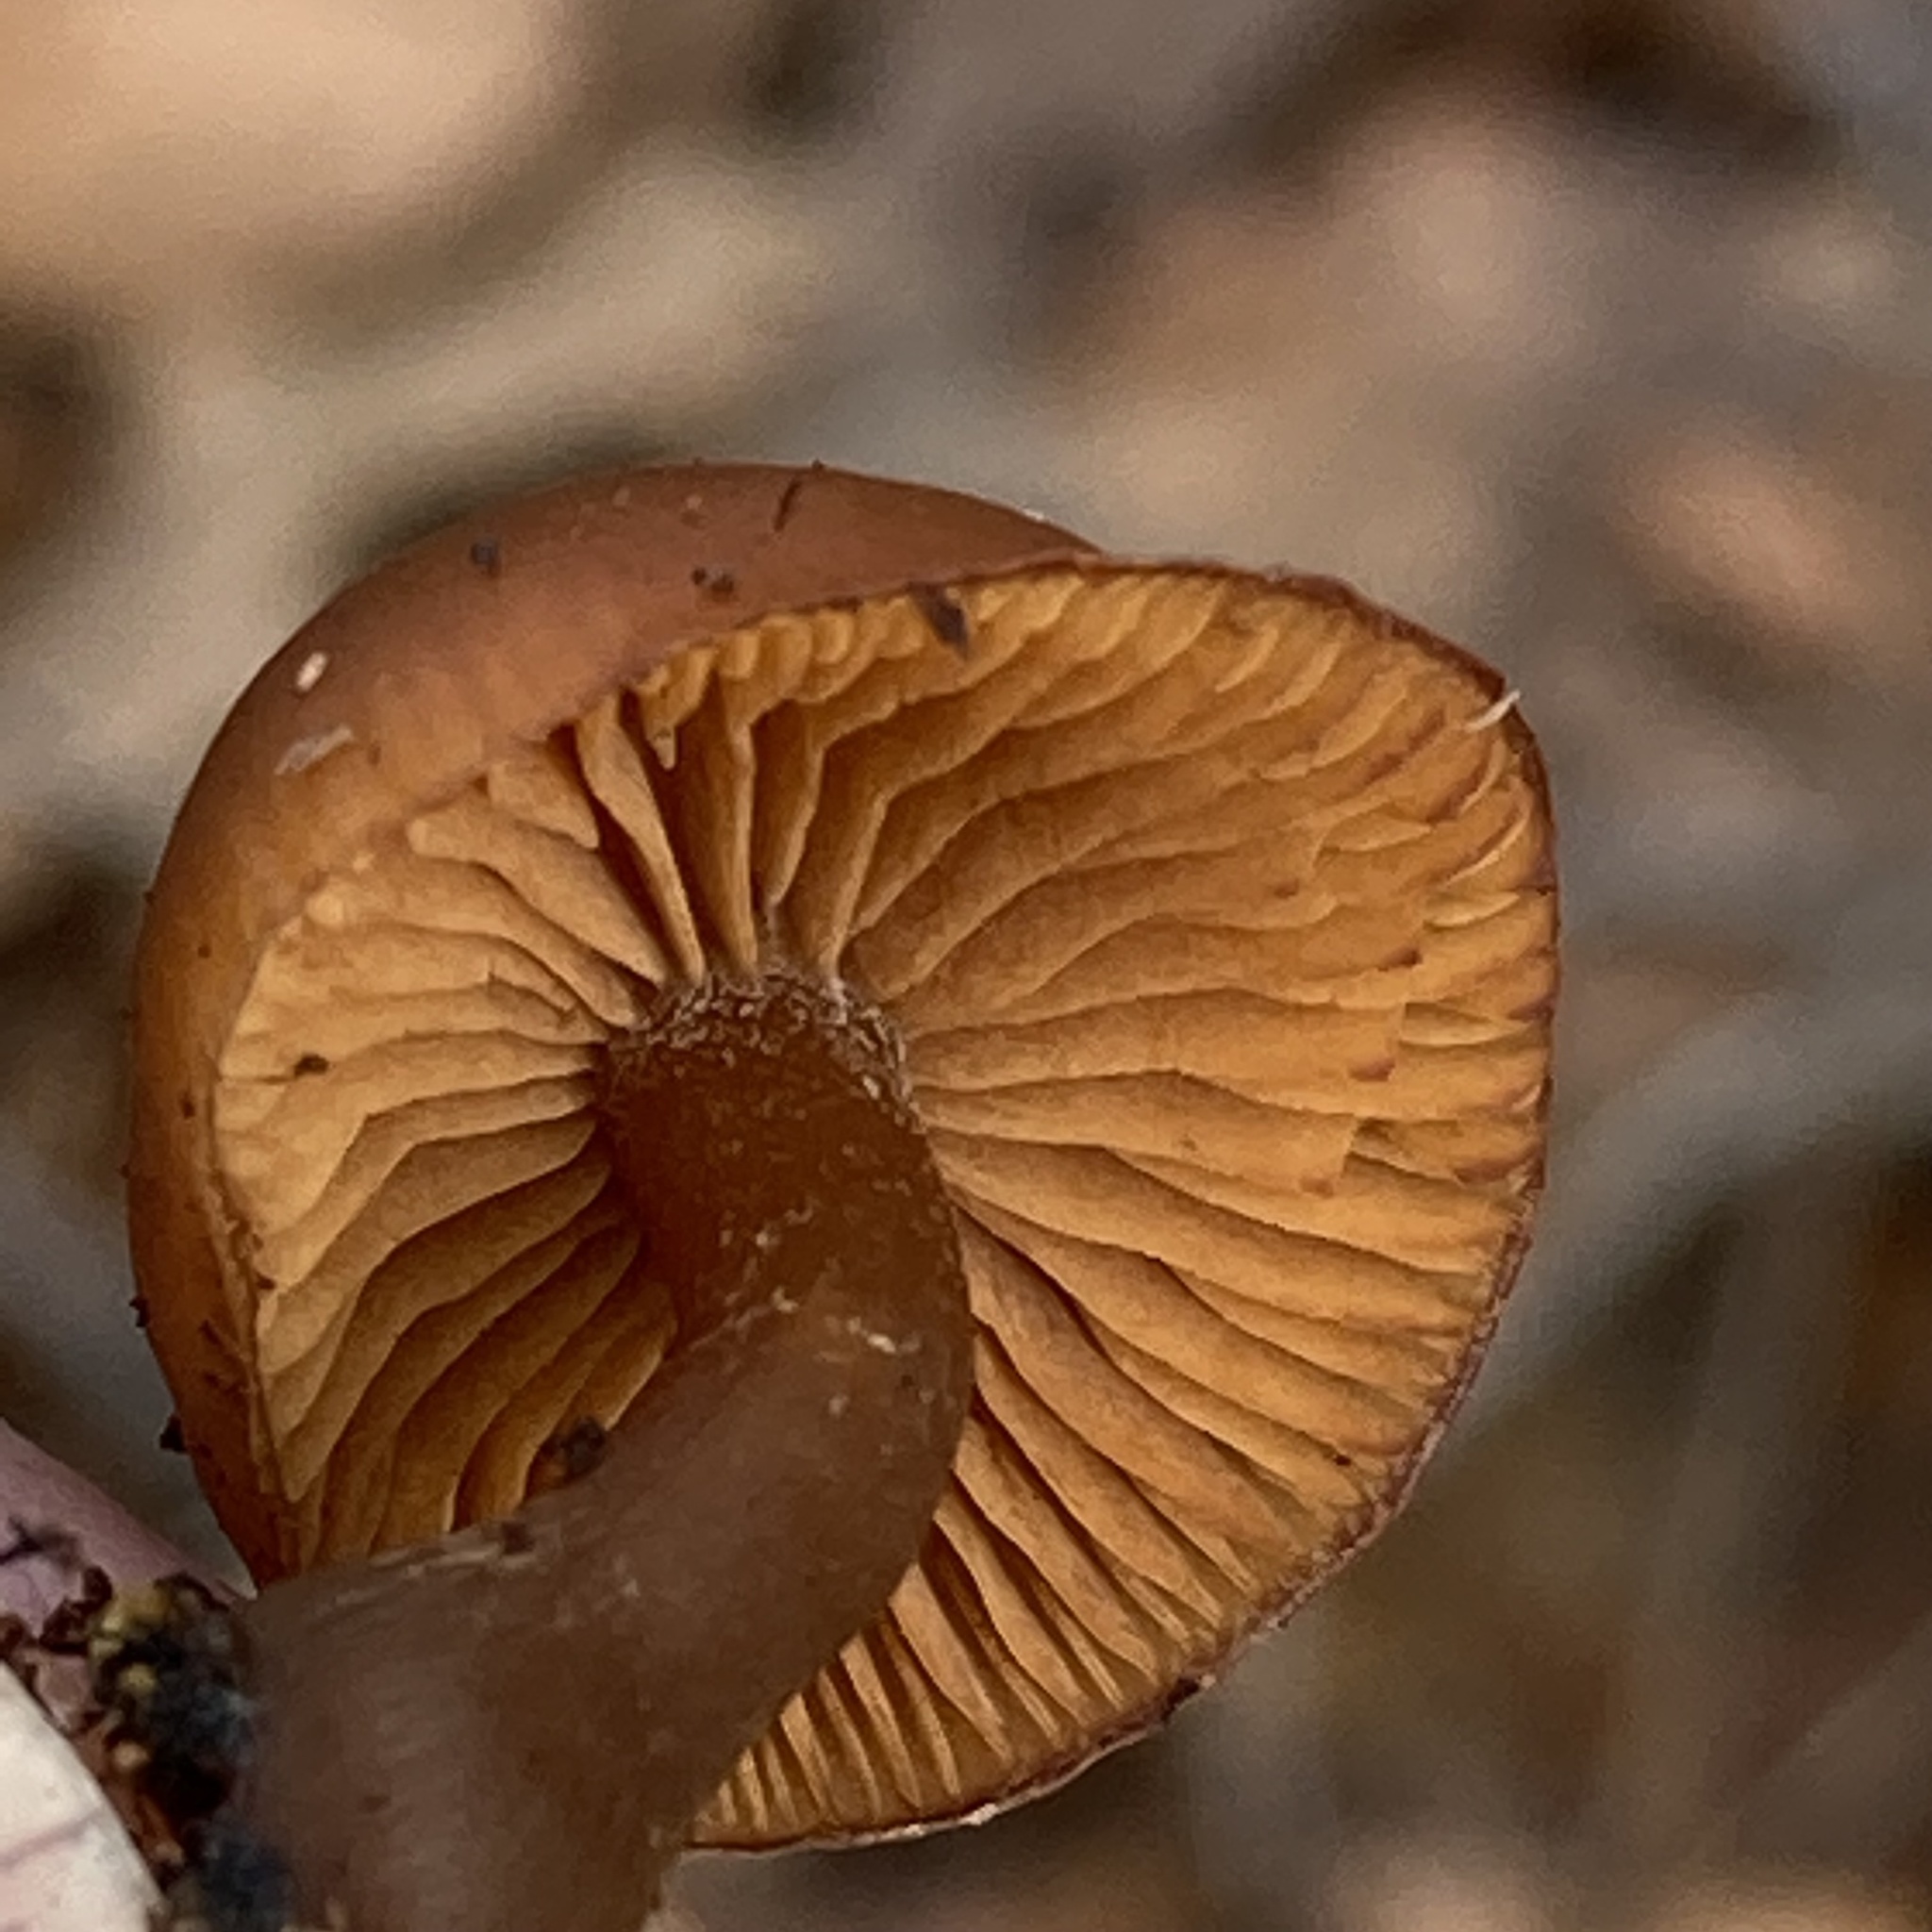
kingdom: Fungi
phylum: Basidiomycota
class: Agaricomycetes
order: Agaricales
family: Hymenogastraceae
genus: Galerina
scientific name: Galerina marginata
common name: Funeral bell
